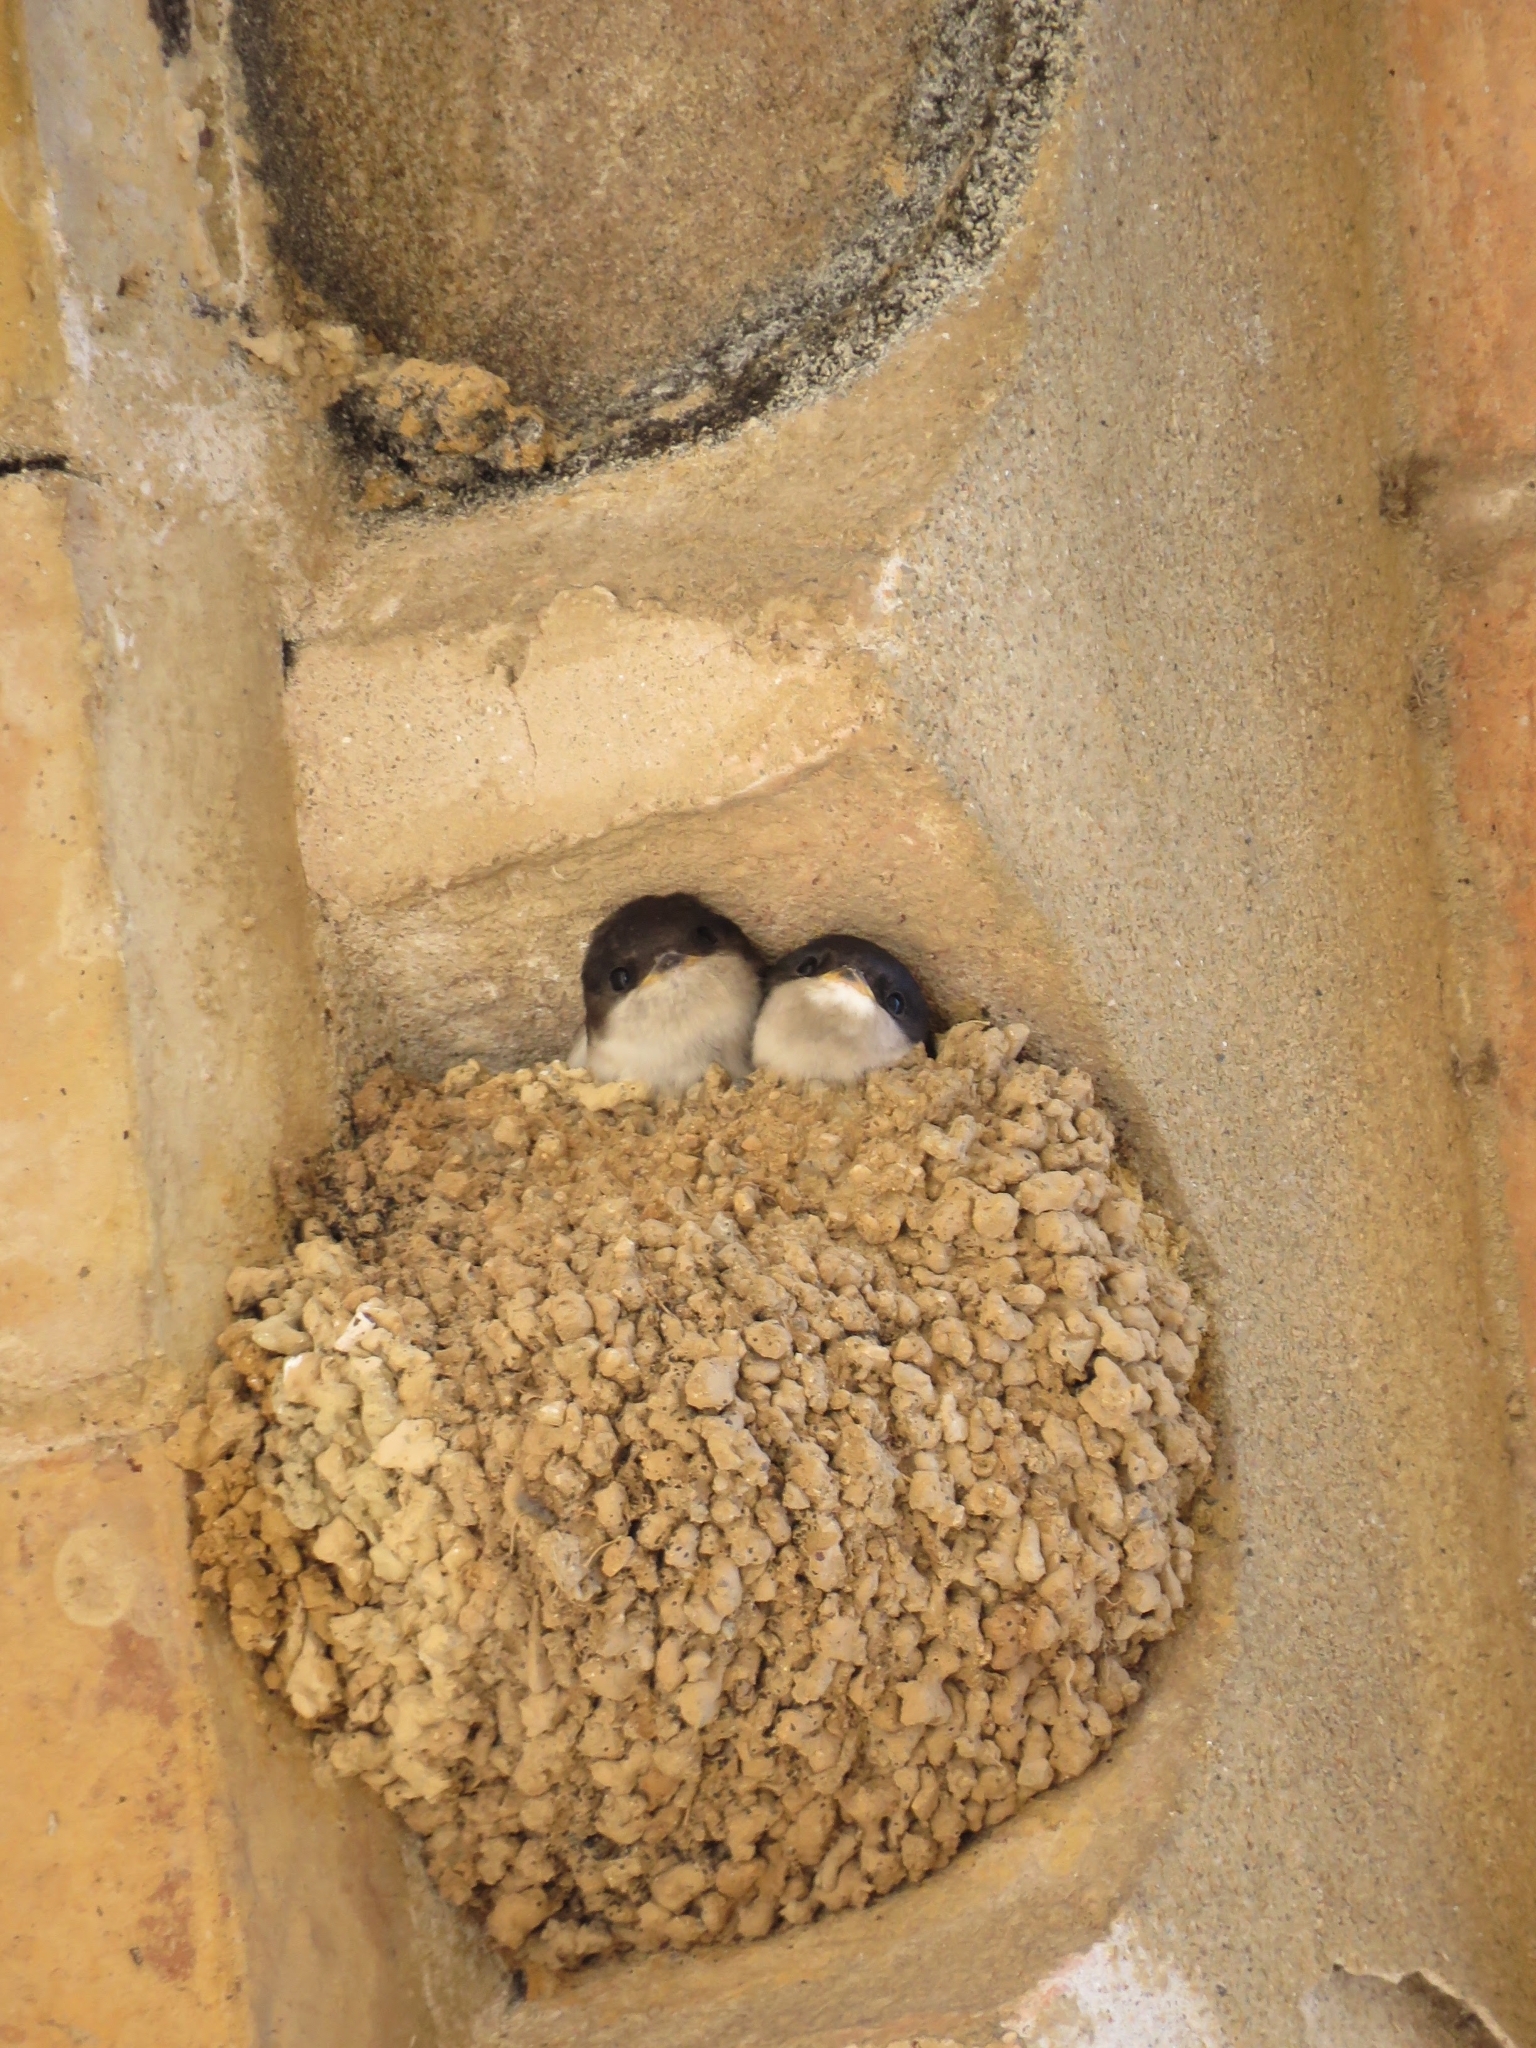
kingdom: Animalia
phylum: Chordata
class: Aves
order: Passeriformes
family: Hirundinidae
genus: Delichon
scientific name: Delichon urbicum
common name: Common house martin
